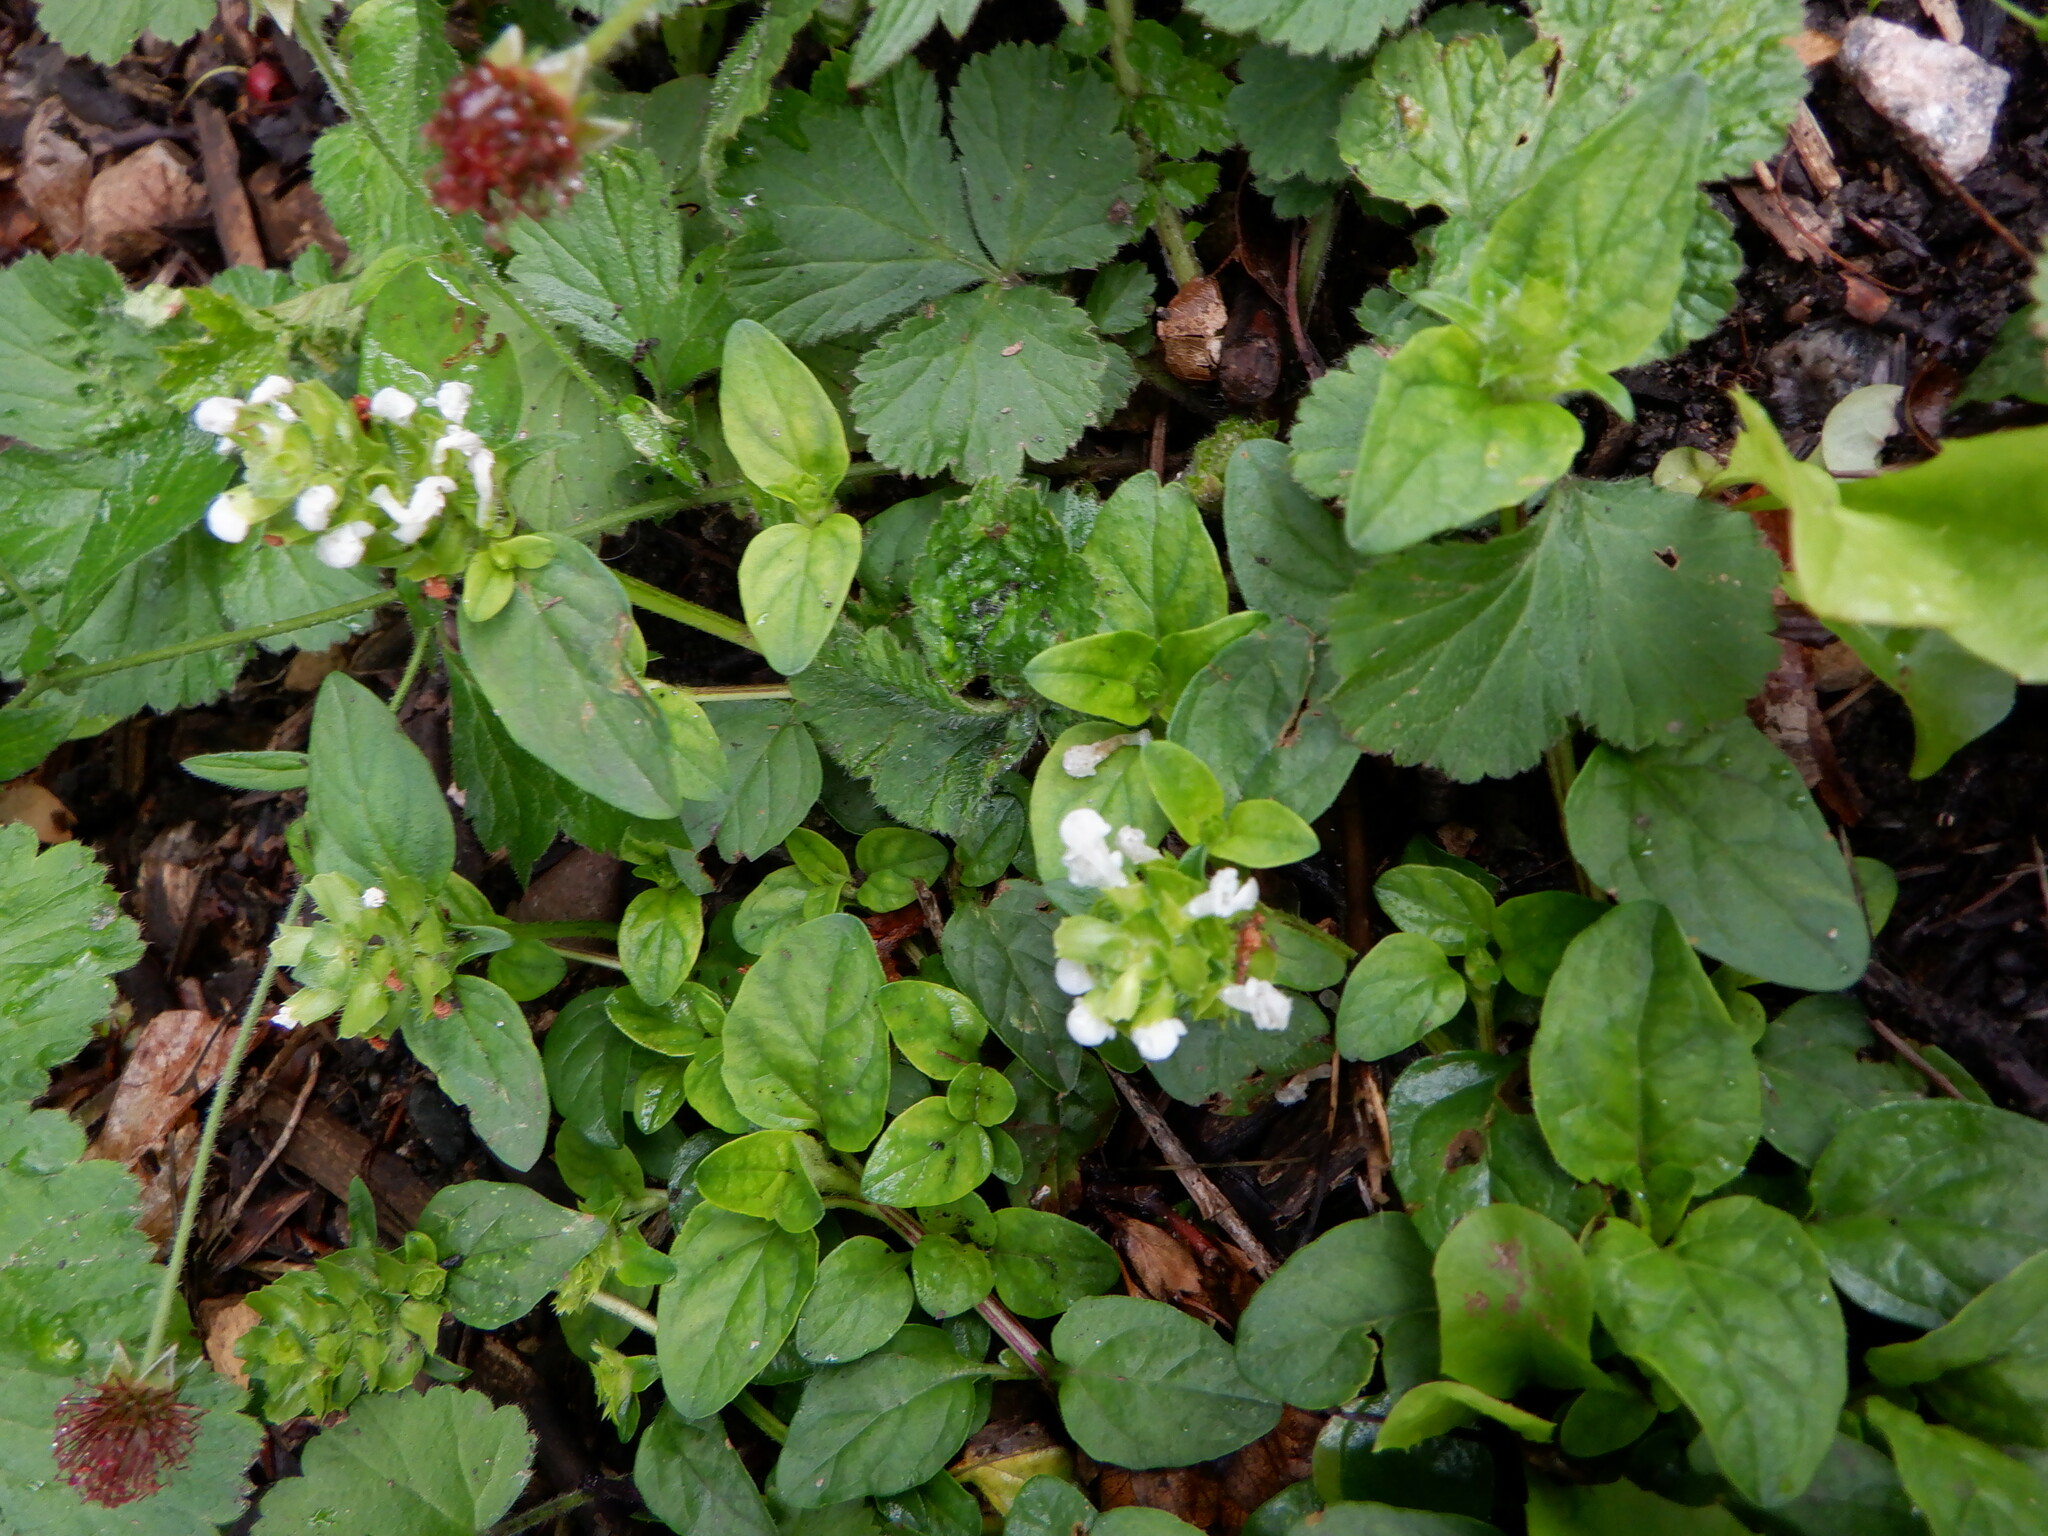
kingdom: Plantae
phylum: Tracheophyta
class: Magnoliopsida
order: Lamiales
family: Lamiaceae
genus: Prunella
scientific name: Prunella vulgaris
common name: Heal-all
